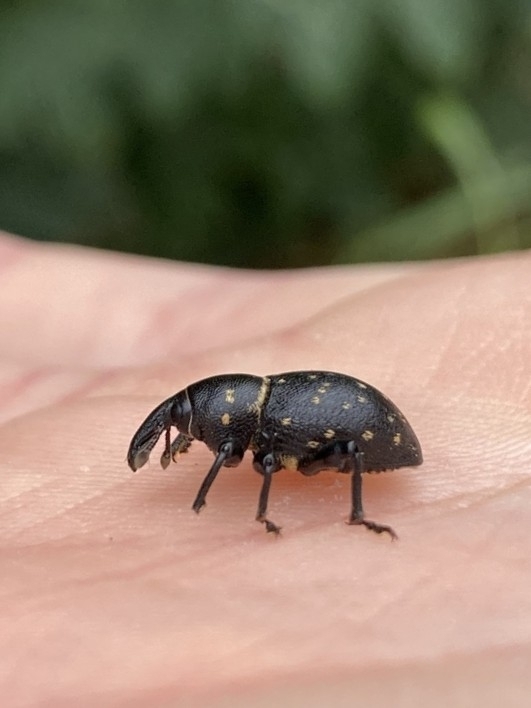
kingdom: Animalia
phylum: Arthropoda
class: Insecta
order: Coleoptera
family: Curculionidae
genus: Liparus
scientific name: Liparus coronatus
